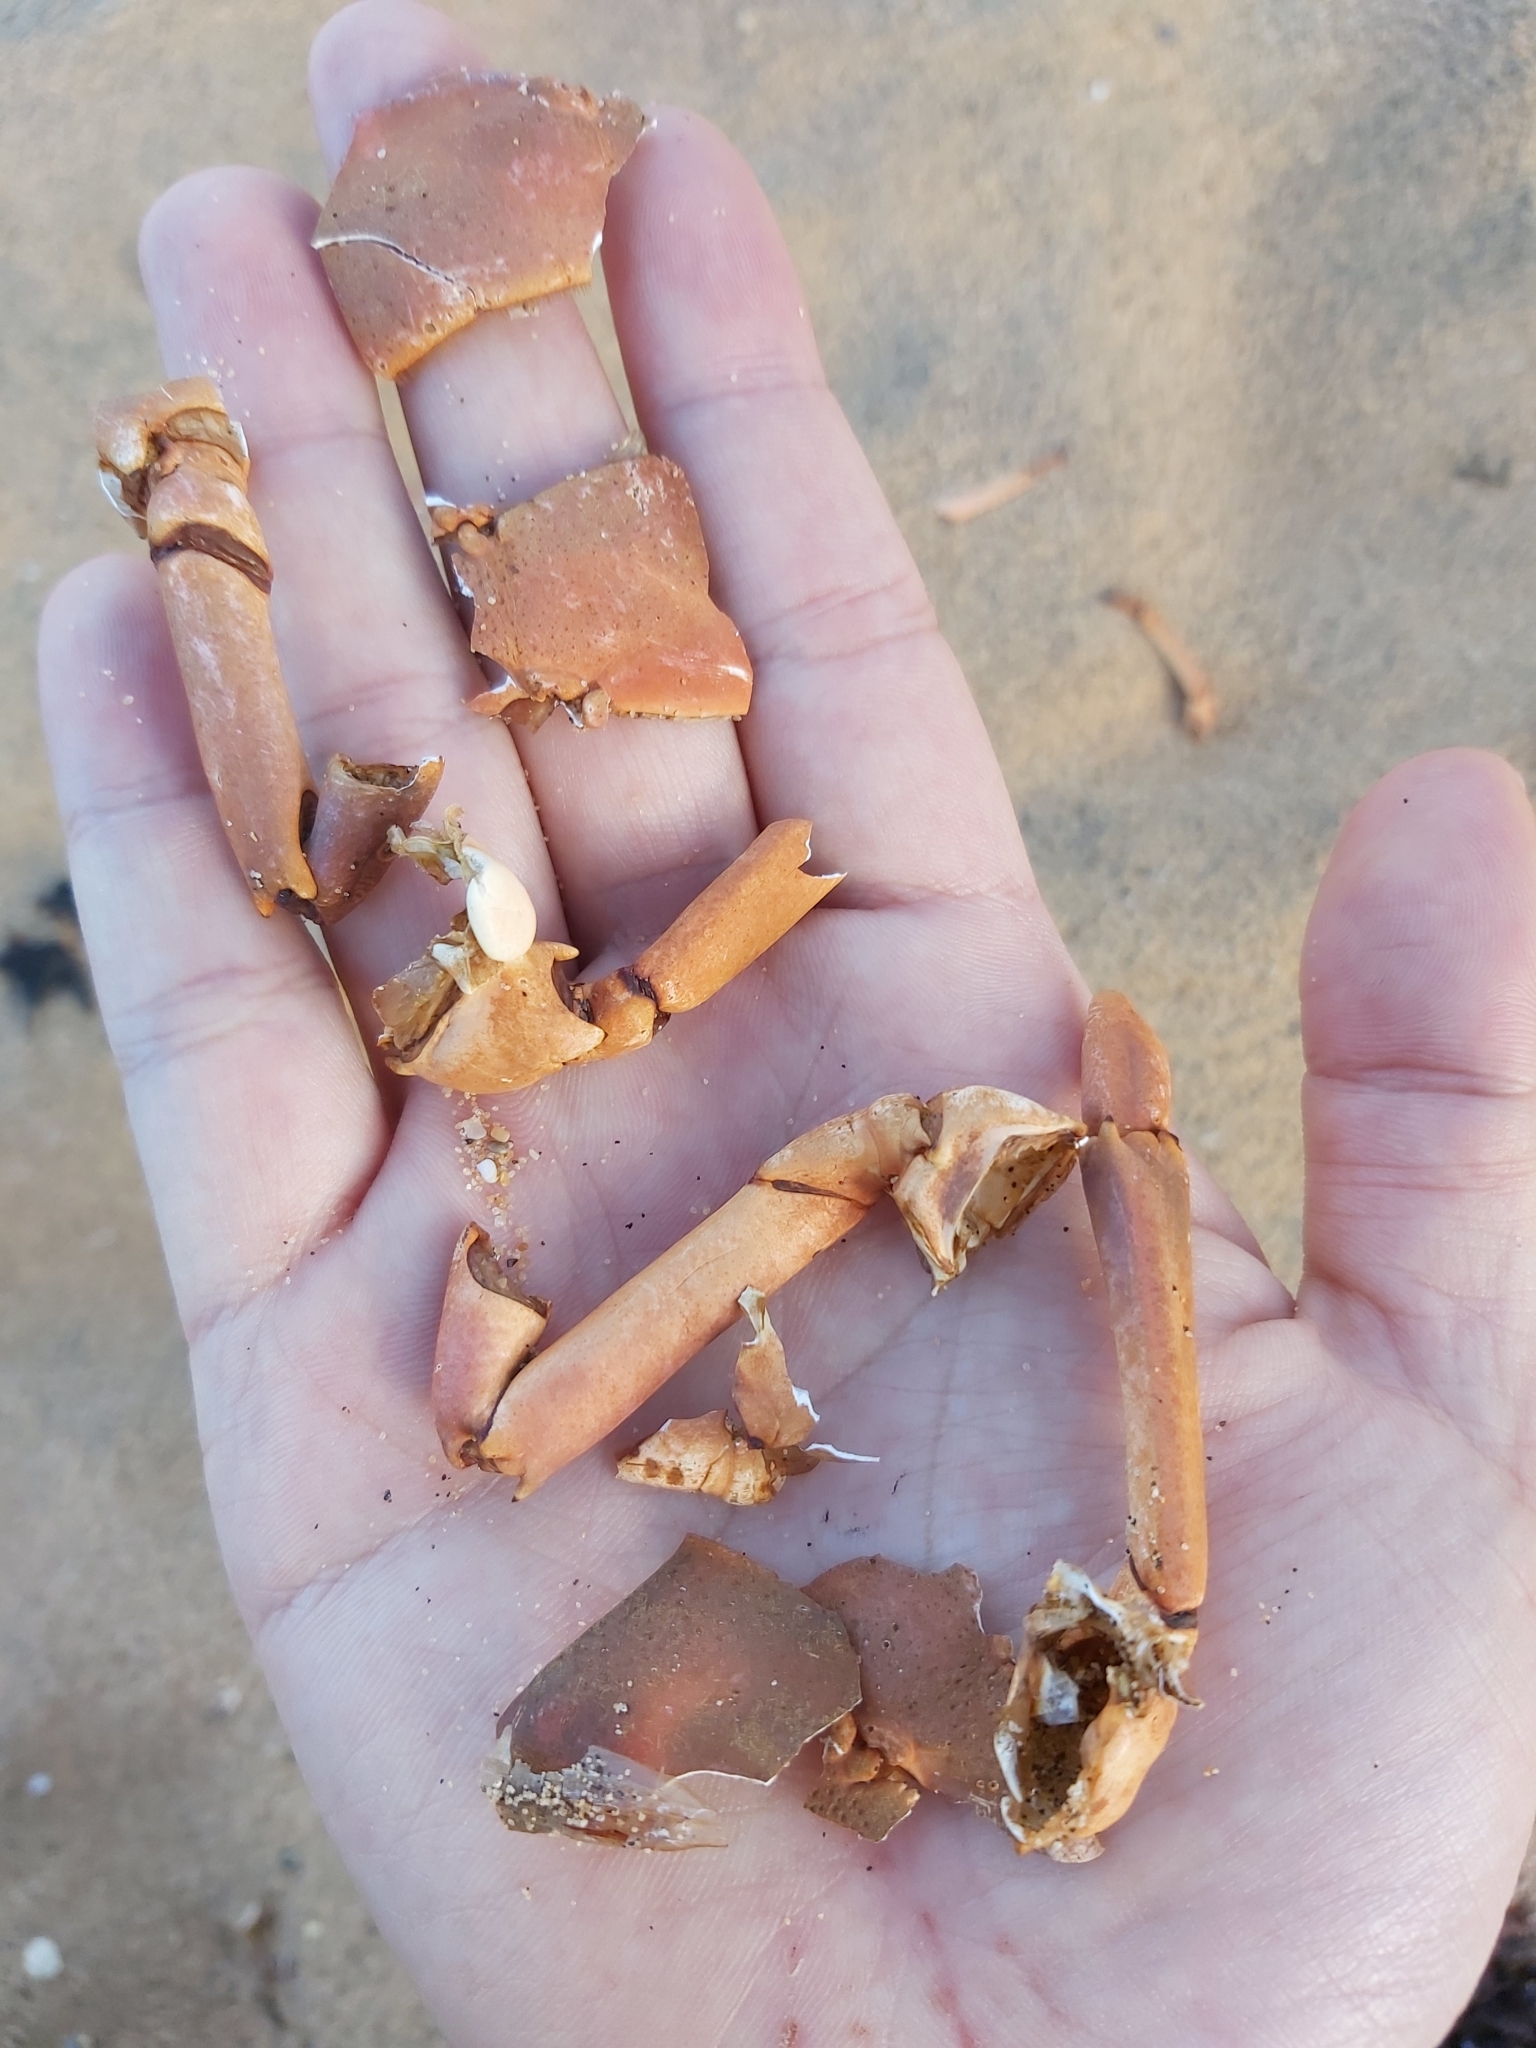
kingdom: Animalia
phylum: Arthropoda
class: Malacostraca
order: Decapoda
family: Palinuridae
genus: Sagmariasus
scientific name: Sagmariasus verreauxi
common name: Green rock lobster
